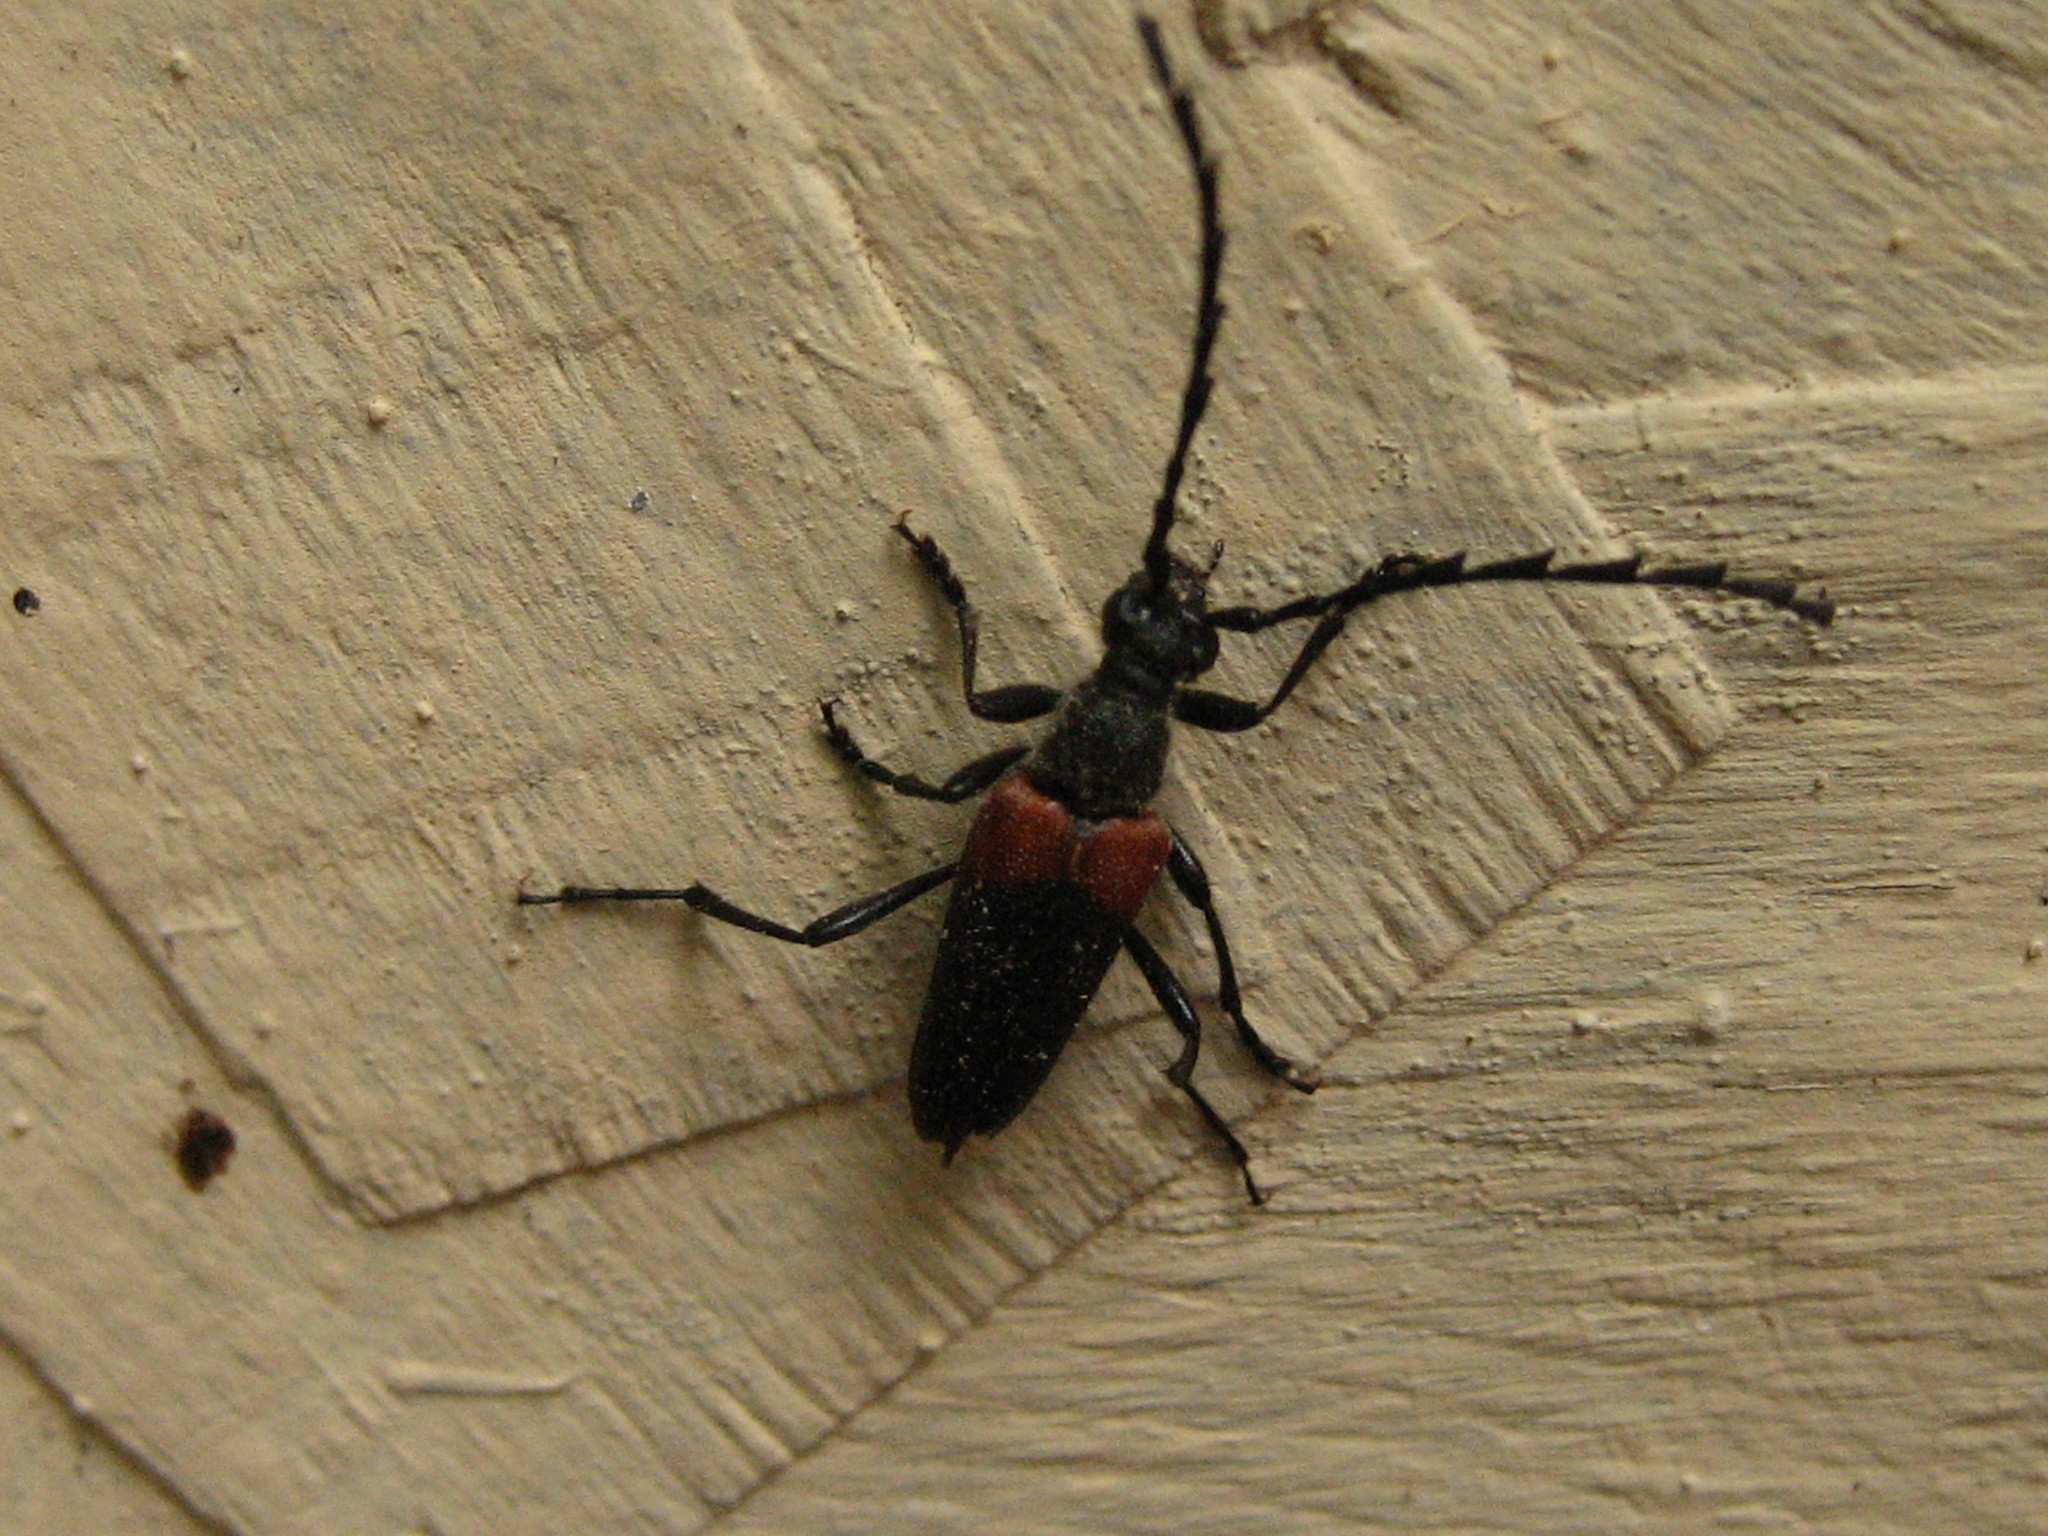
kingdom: Animalia
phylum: Arthropoda
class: Insecta
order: Coleoptera
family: Cerambycidae
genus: Stictoleptura
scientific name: Stictoleptura canadensis
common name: Red-shouldered pine borer
